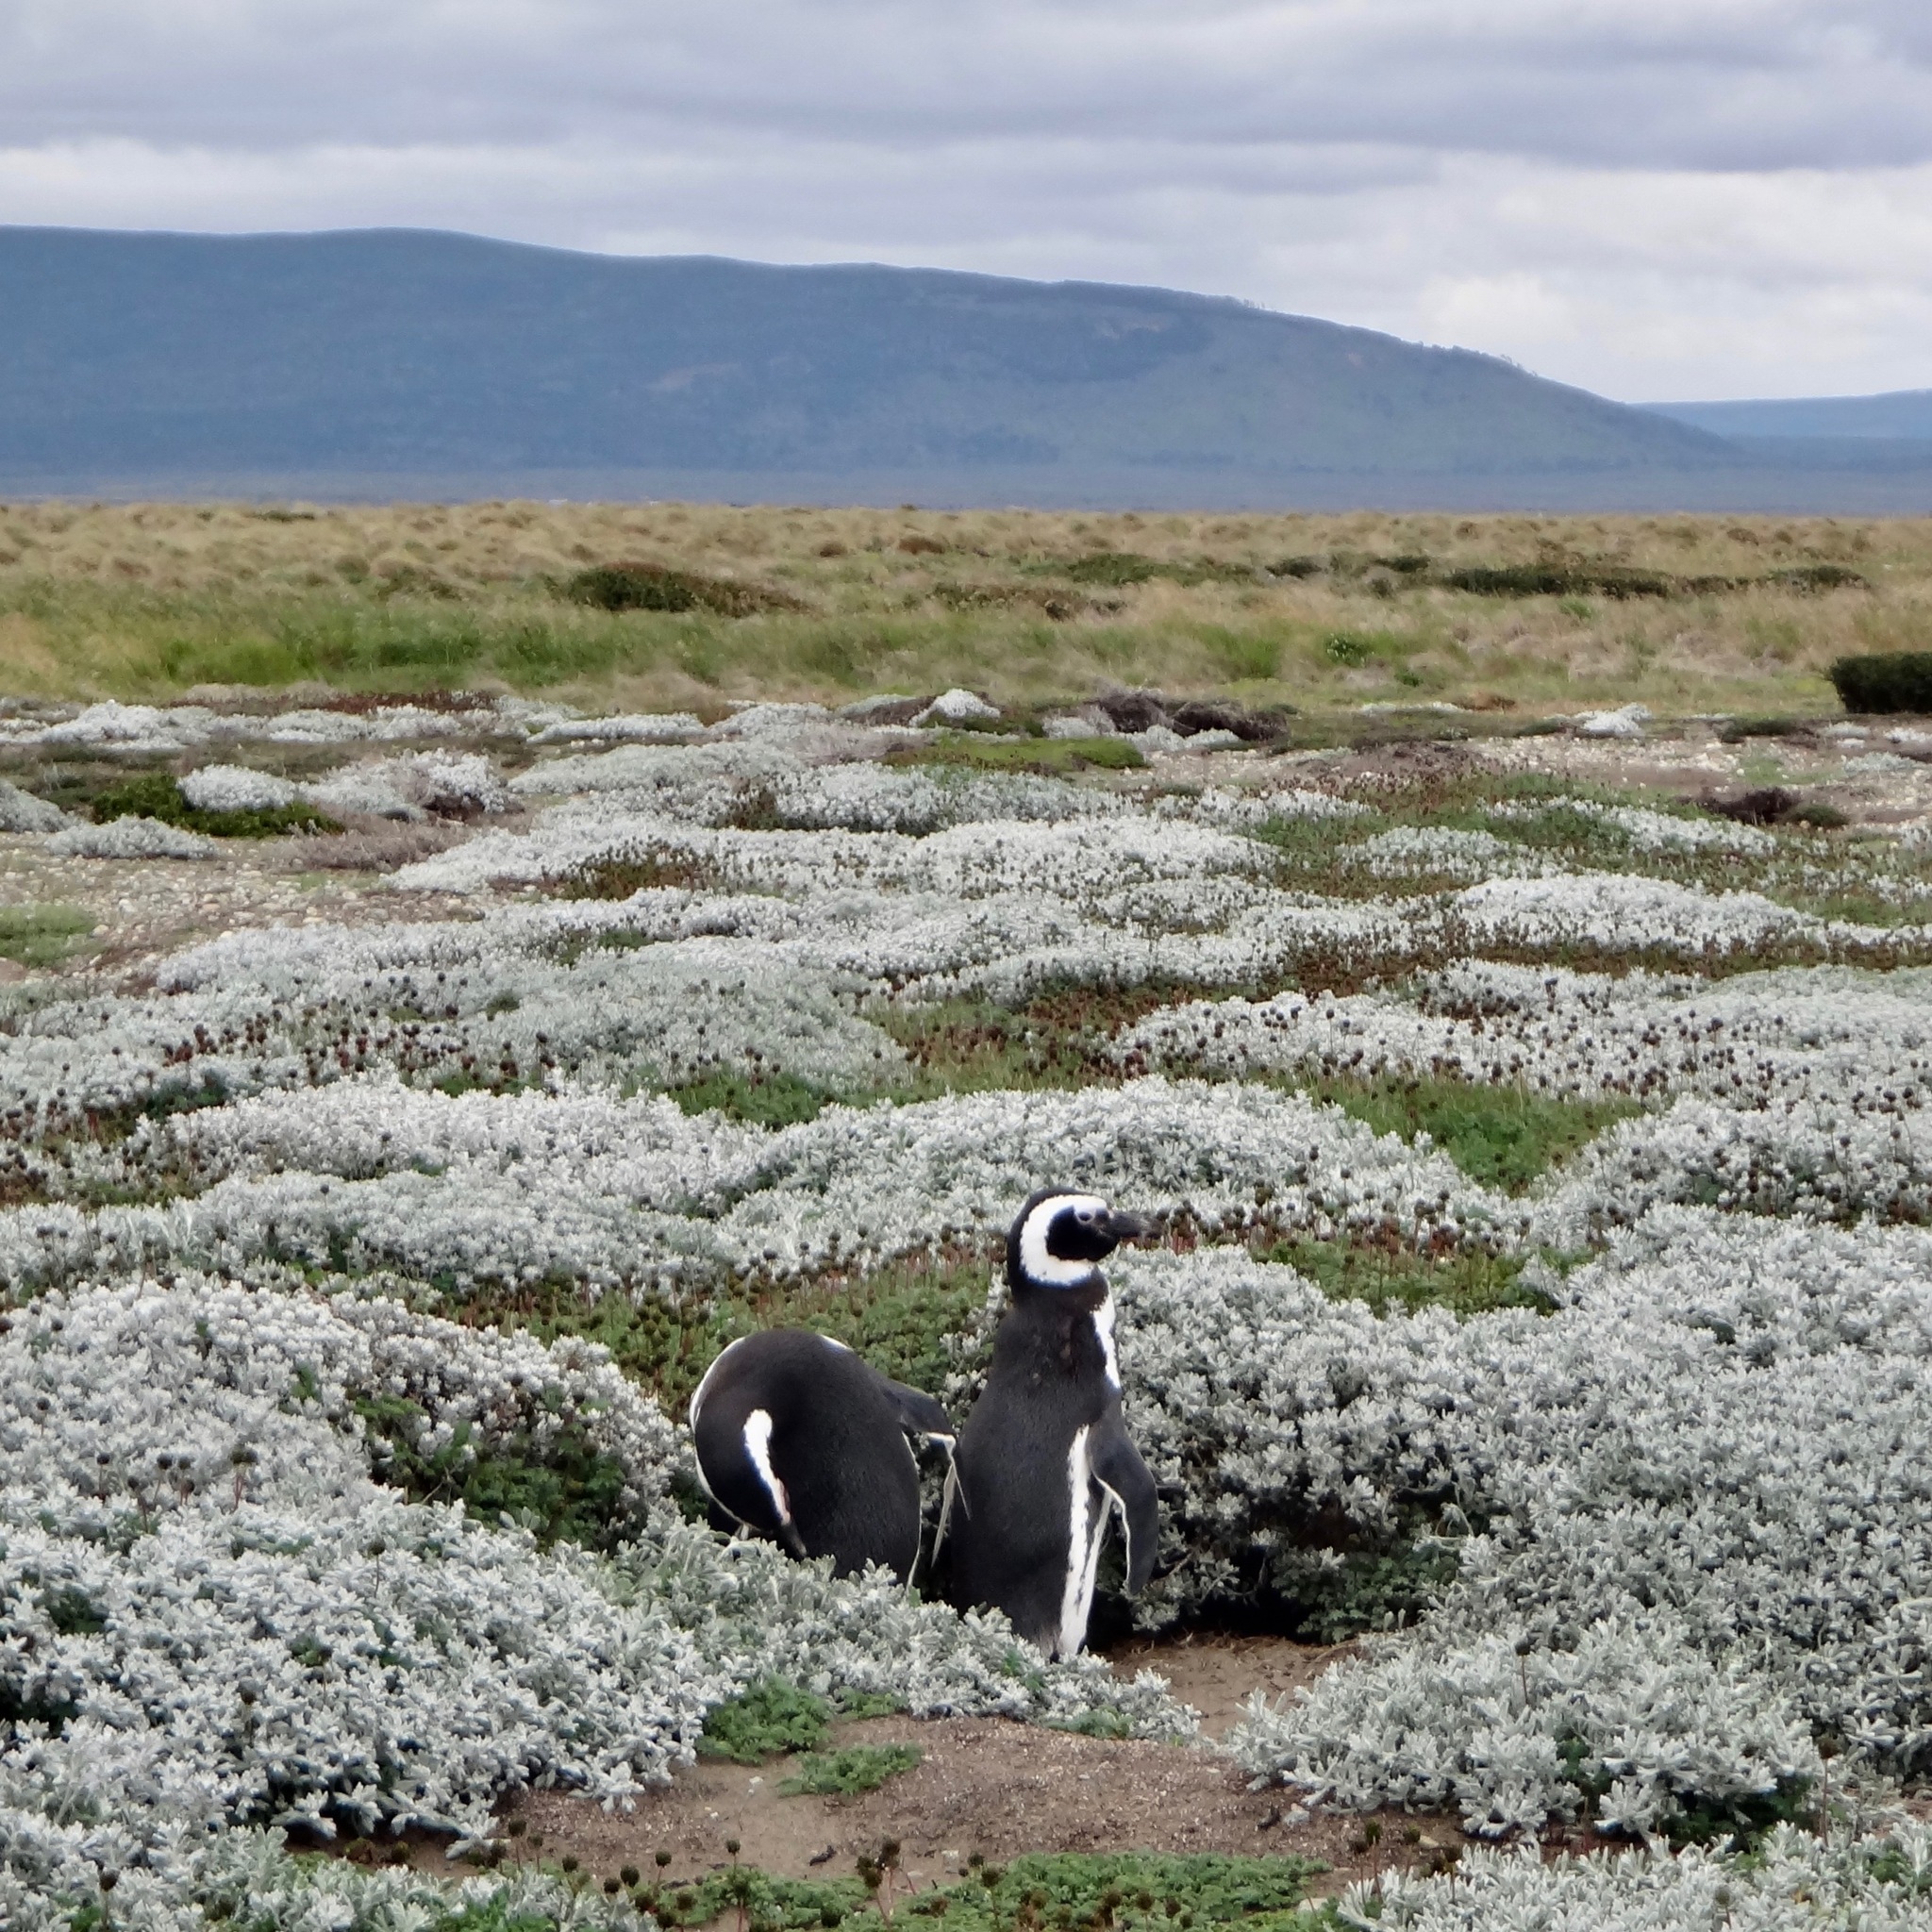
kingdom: Animalia
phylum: Chordata
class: Aves
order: Sphenisciformes
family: Spheniscidae
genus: Spheniscus
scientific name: Spheniscus magellanicus
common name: Magellanic penguin
